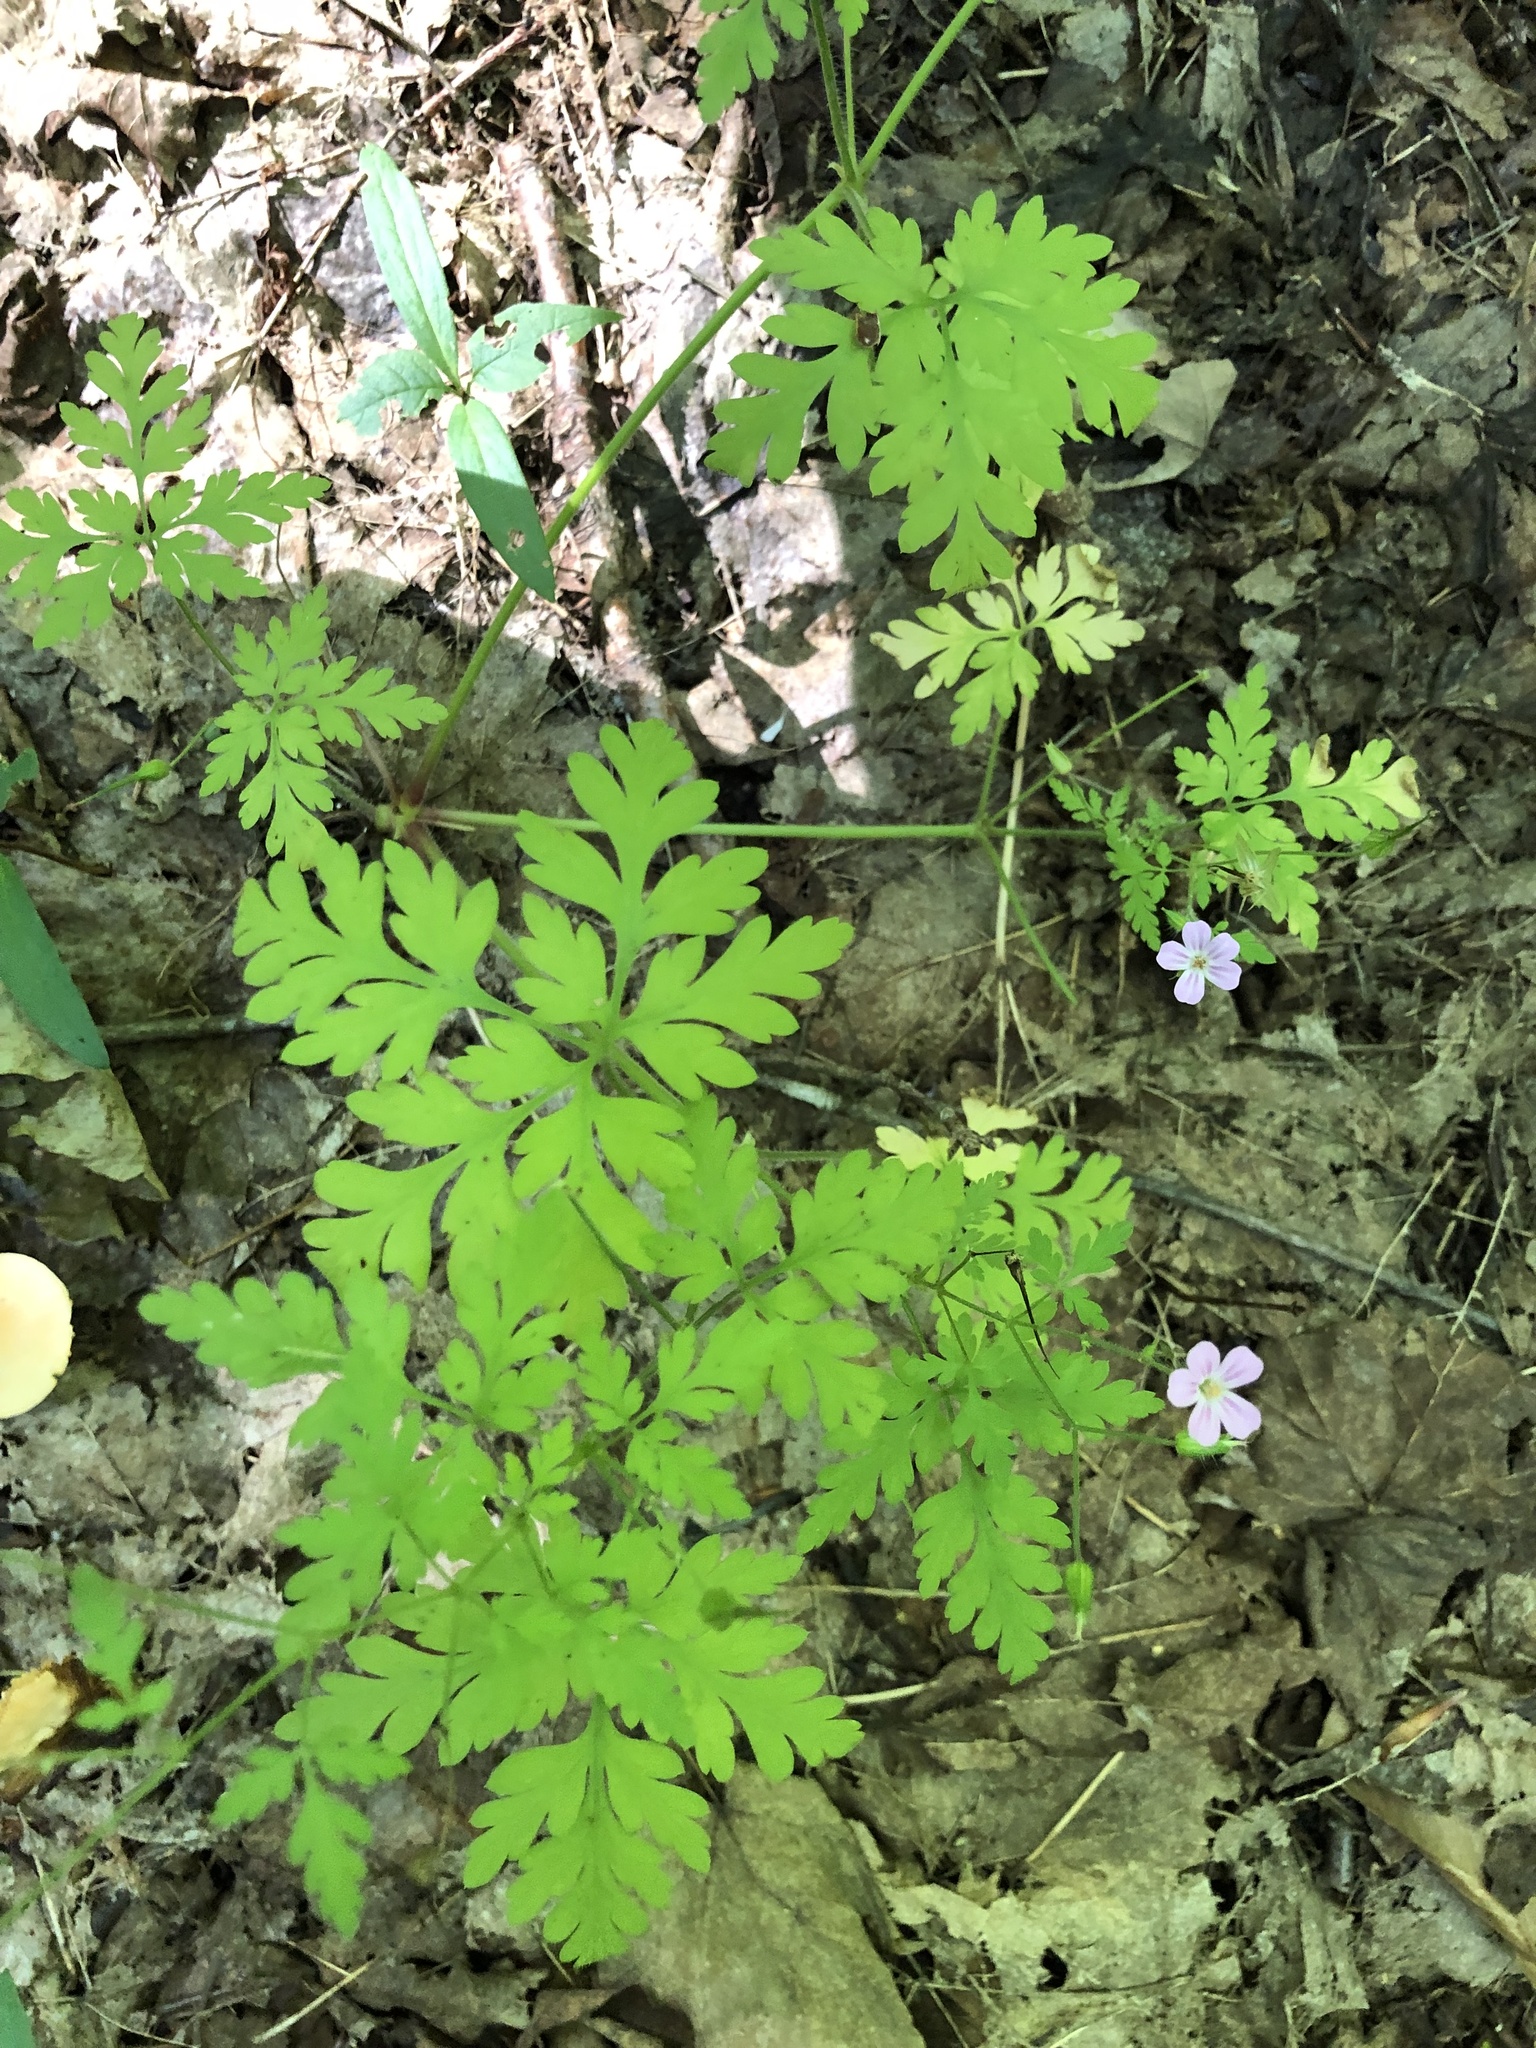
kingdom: Plantae
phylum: Tracheophyta
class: Magnoliopsida
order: Geraniales
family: Geraniaceae
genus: Geranium
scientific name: Geranium robertianum
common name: Herb-robert
